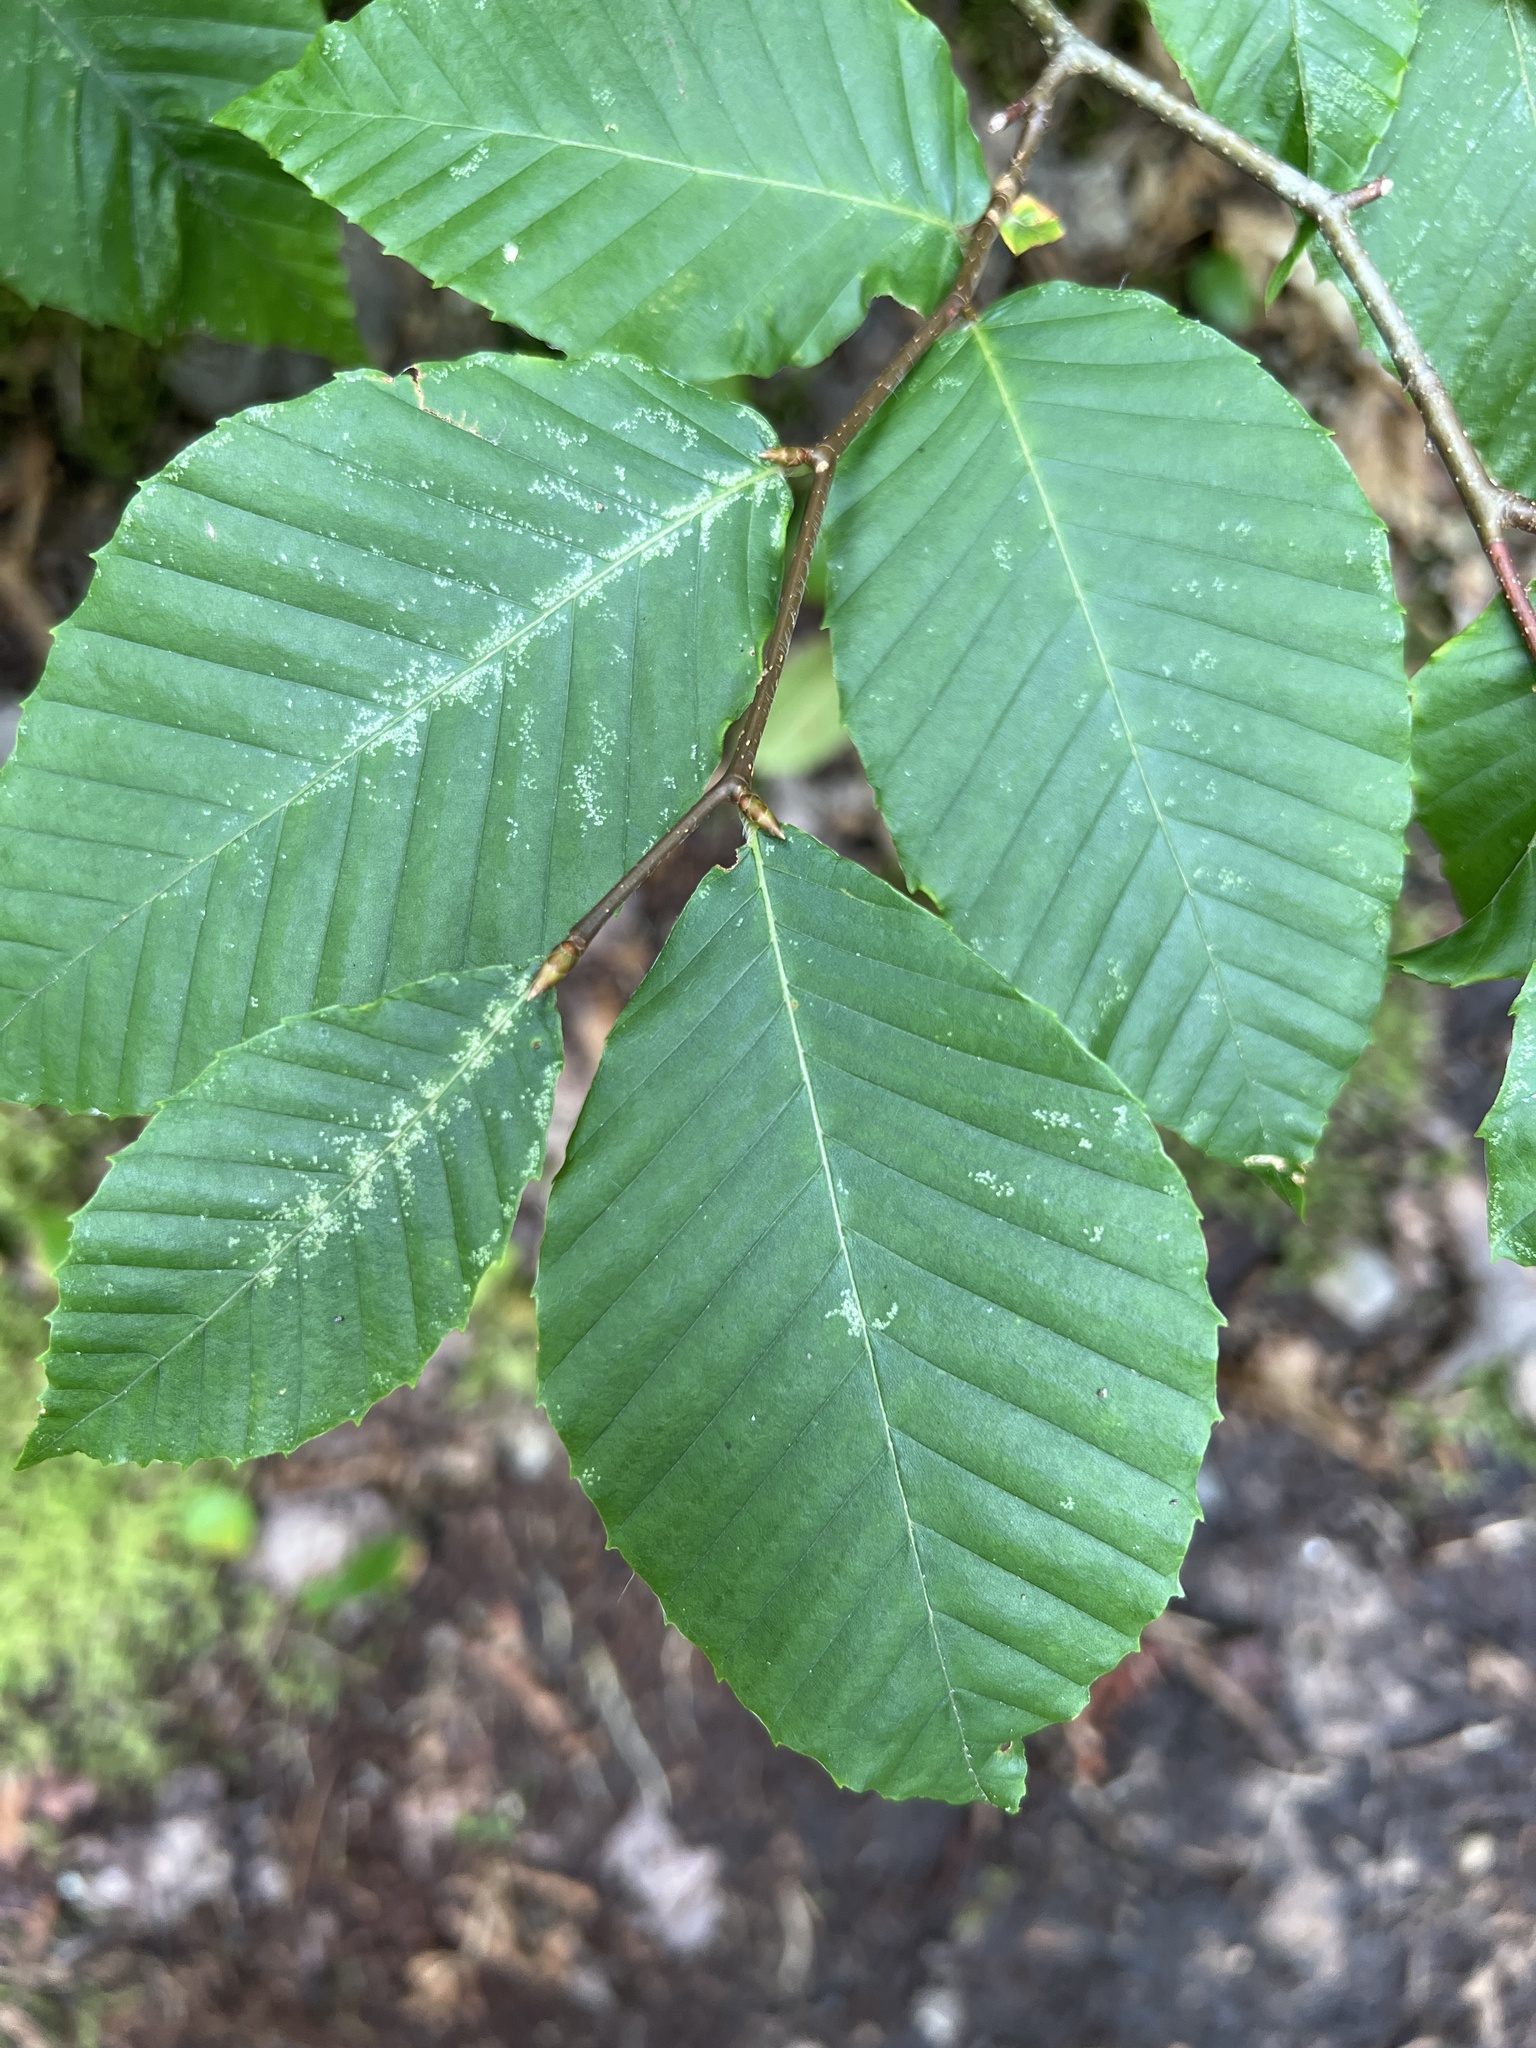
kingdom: Plantae
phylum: Tracheophyta
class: Magnoliopsida
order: Fagales
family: Fagaceae
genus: Fagus
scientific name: Fagus grandifolia
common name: American beech
